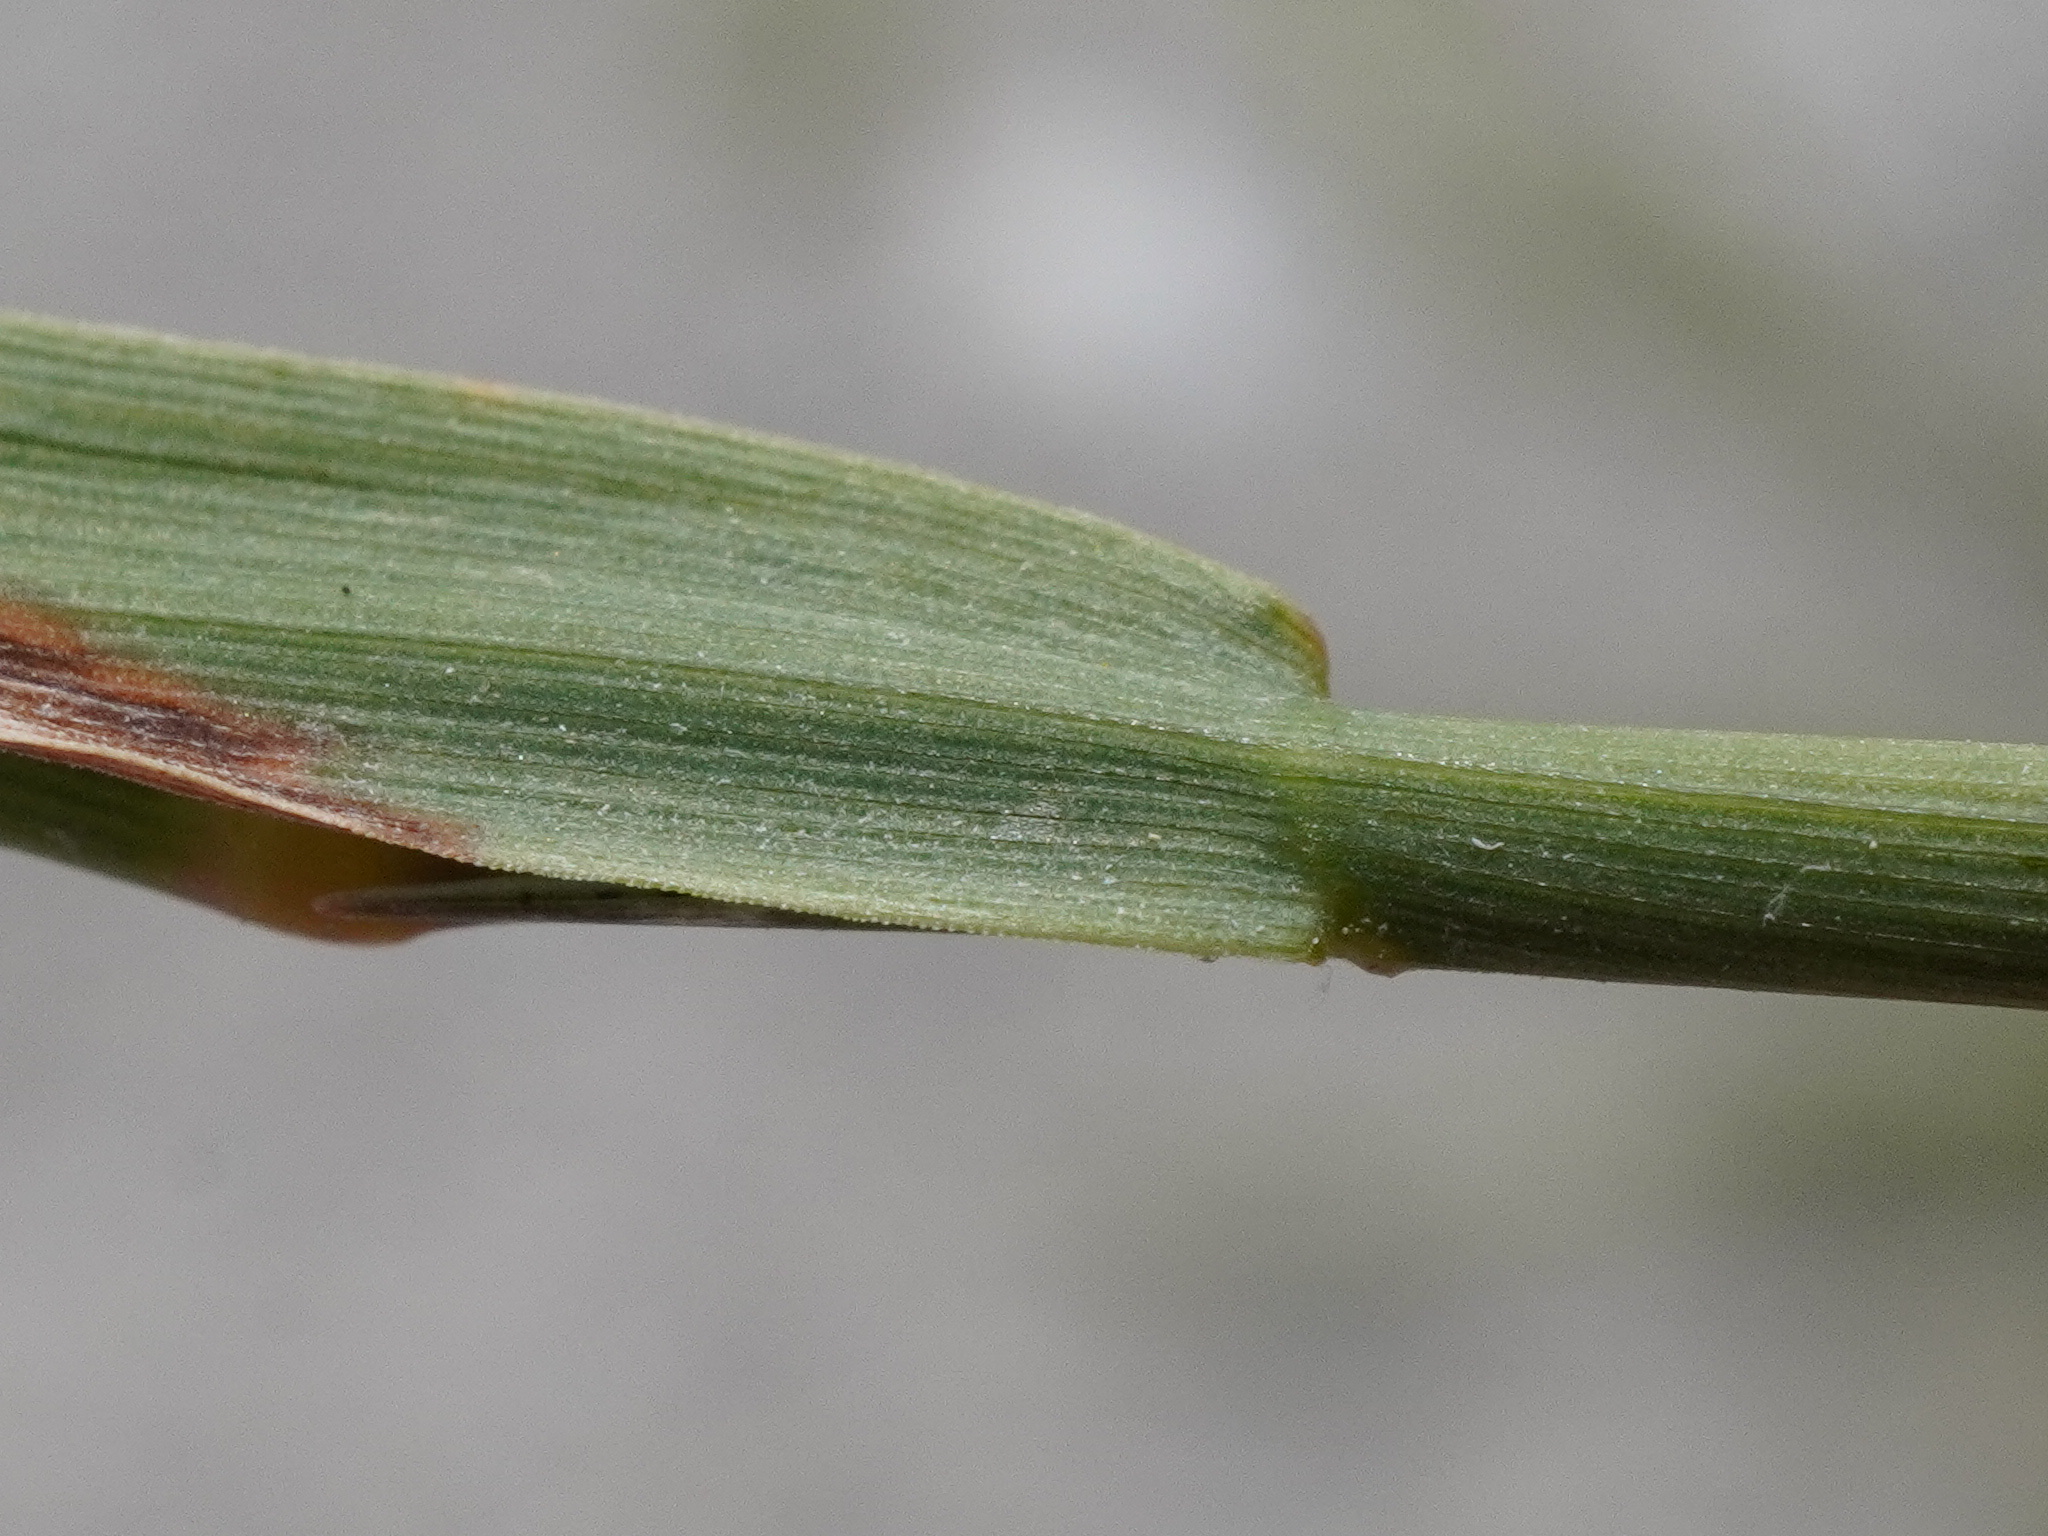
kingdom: Plantae
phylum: Tracheophyta
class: Liliopsida
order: Poales
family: Poaceae
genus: Agrostis
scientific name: Agrostis stolonifera
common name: Creeping bentgrass
